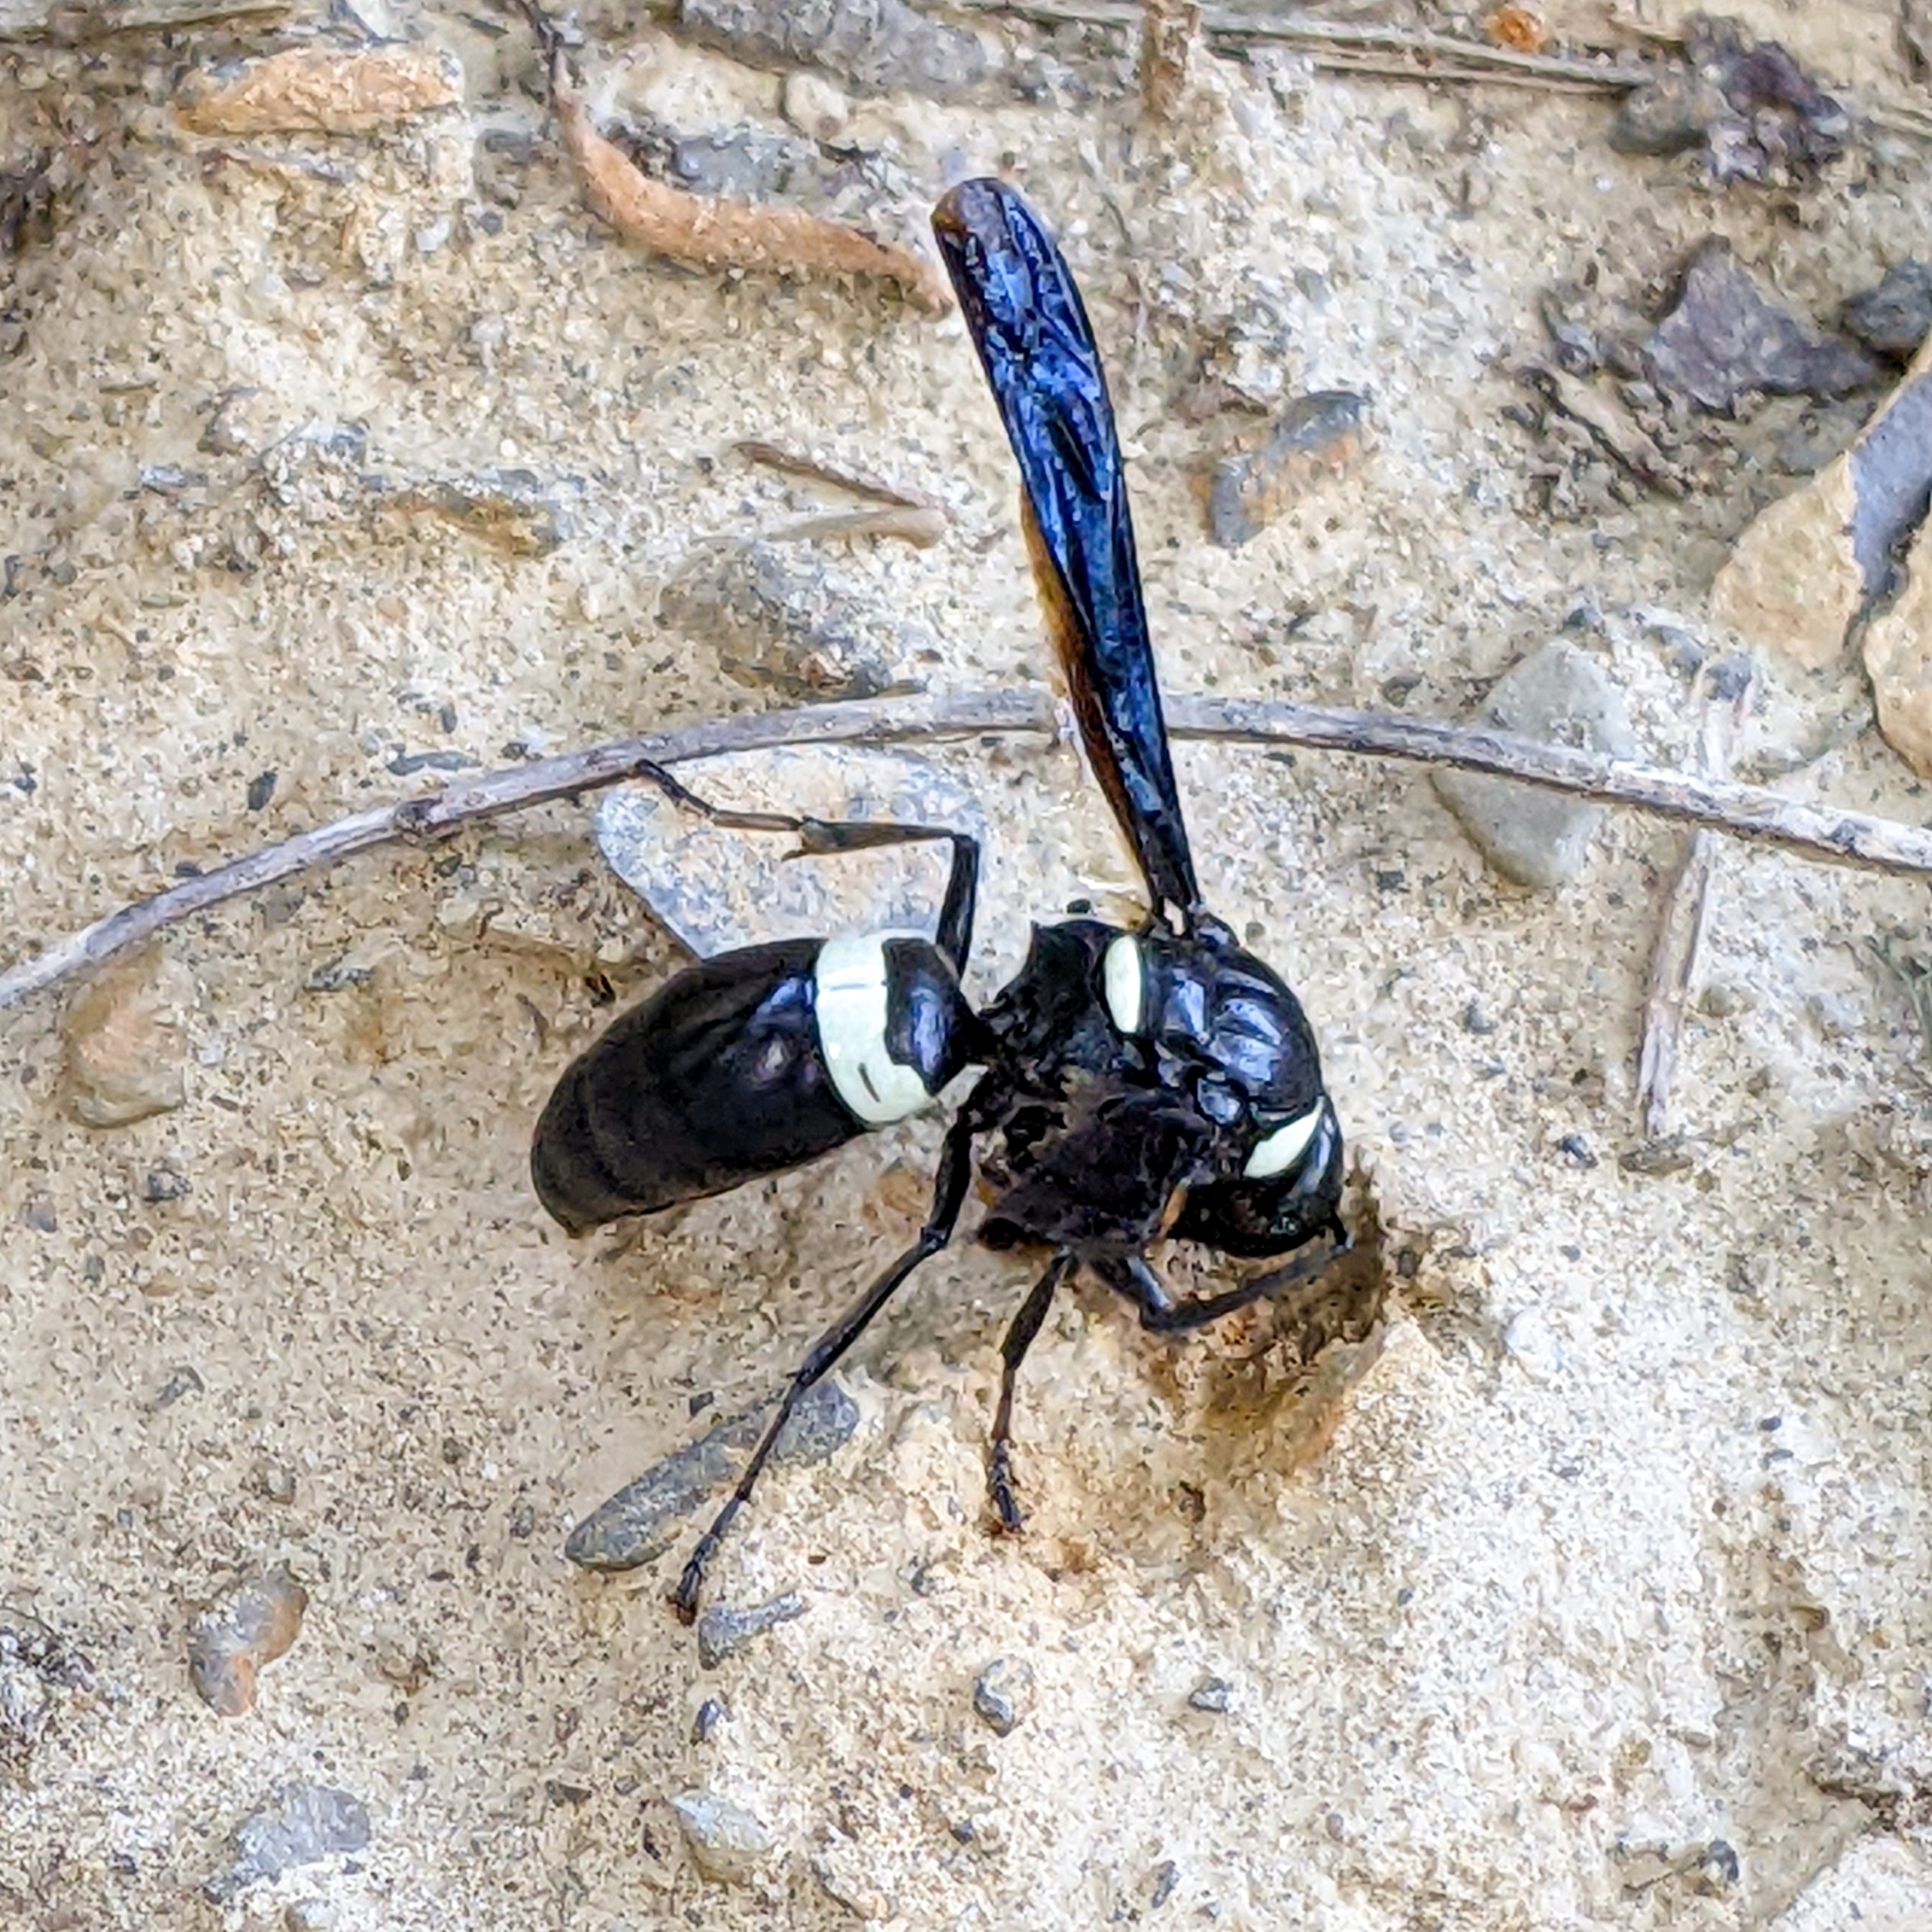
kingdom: Animalia
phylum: Arthropoda
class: Insecta
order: Hymenoptera
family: Eumenidae
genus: Monobia
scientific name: Monobia quadridens
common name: Four-toothed mason wasp
